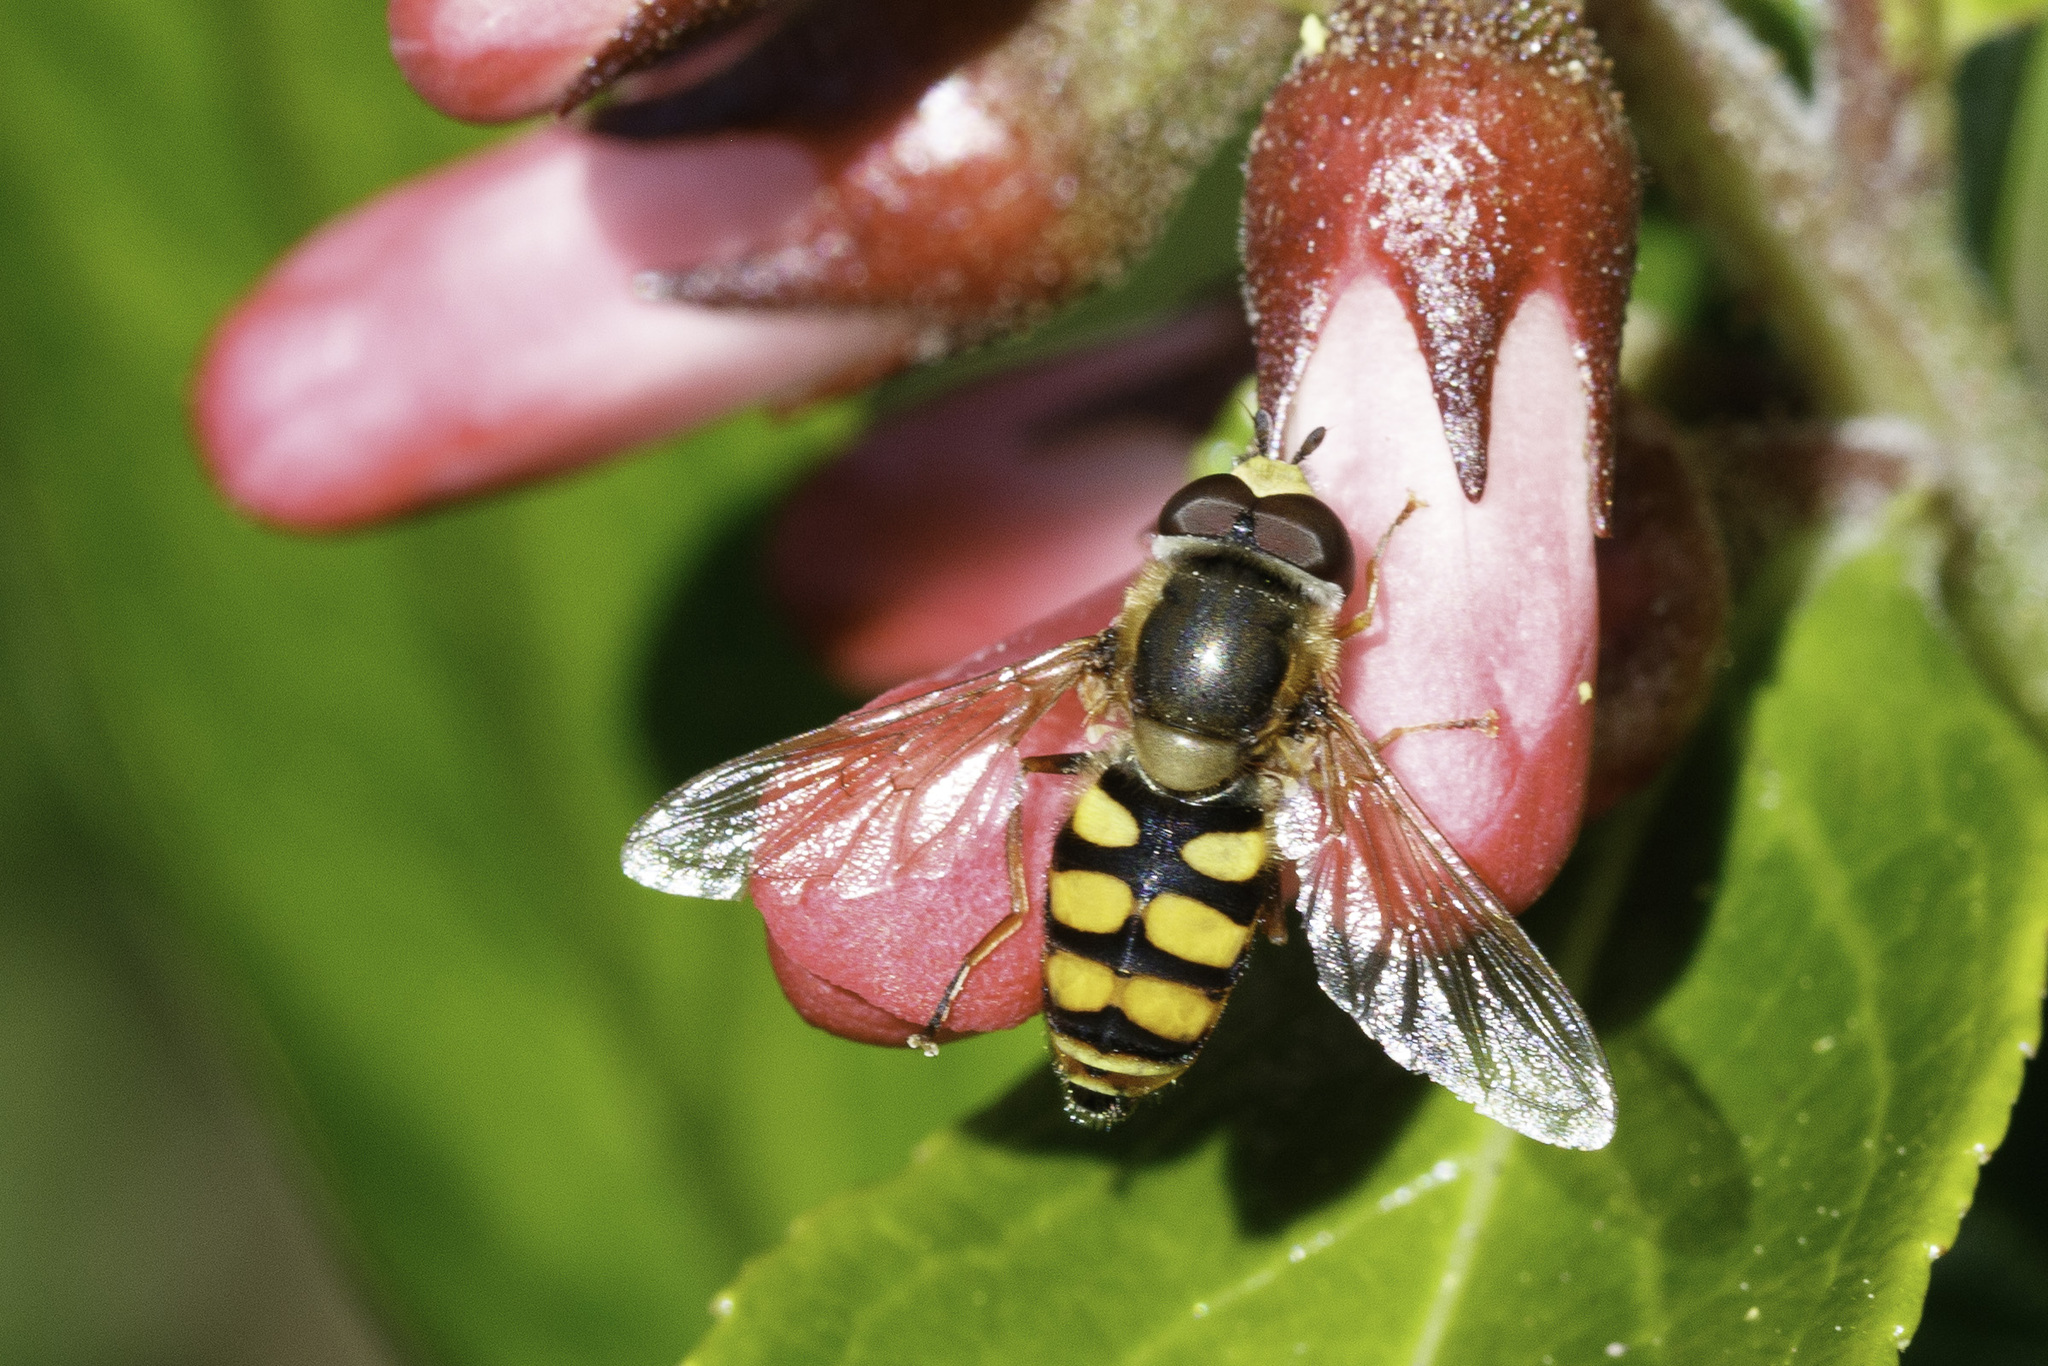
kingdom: Animalia
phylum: Arthropoda
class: Insecta
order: Diptera
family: Syrphidae
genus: Eupeodes
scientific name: Eupeodes corollae
